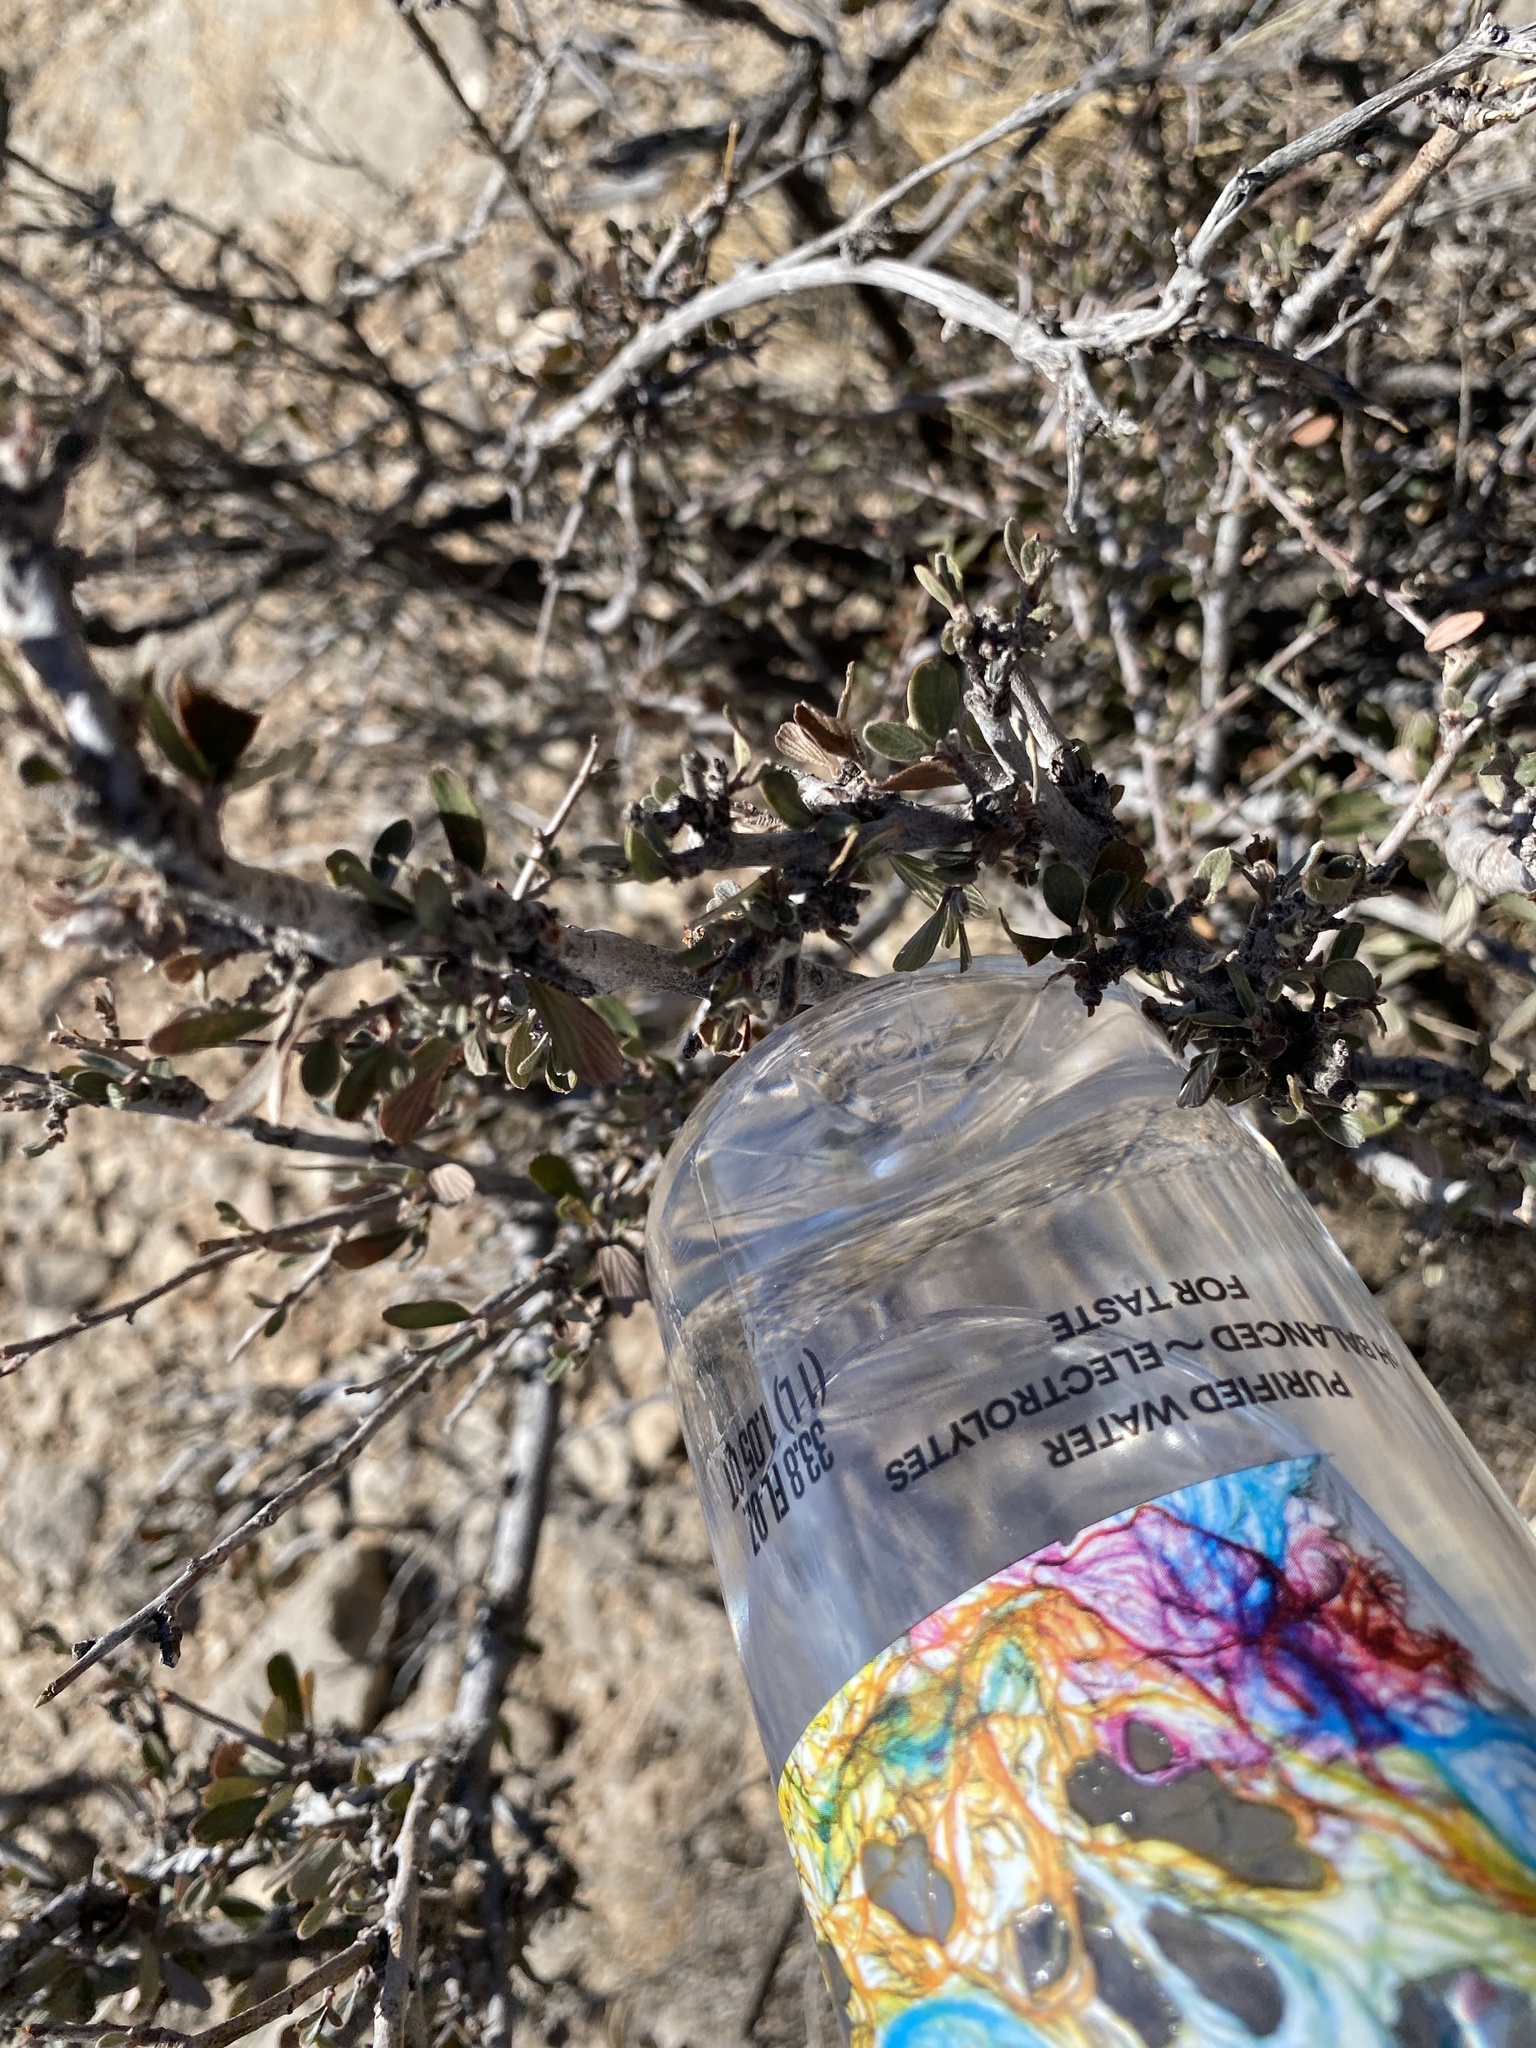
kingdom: Plantae
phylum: Tracheophyta
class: Magnoliopsida
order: Rosales
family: Rosaceae
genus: Cercocarpus
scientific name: Cercocarpus breviflorus
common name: Wright's mountain-mahogany
